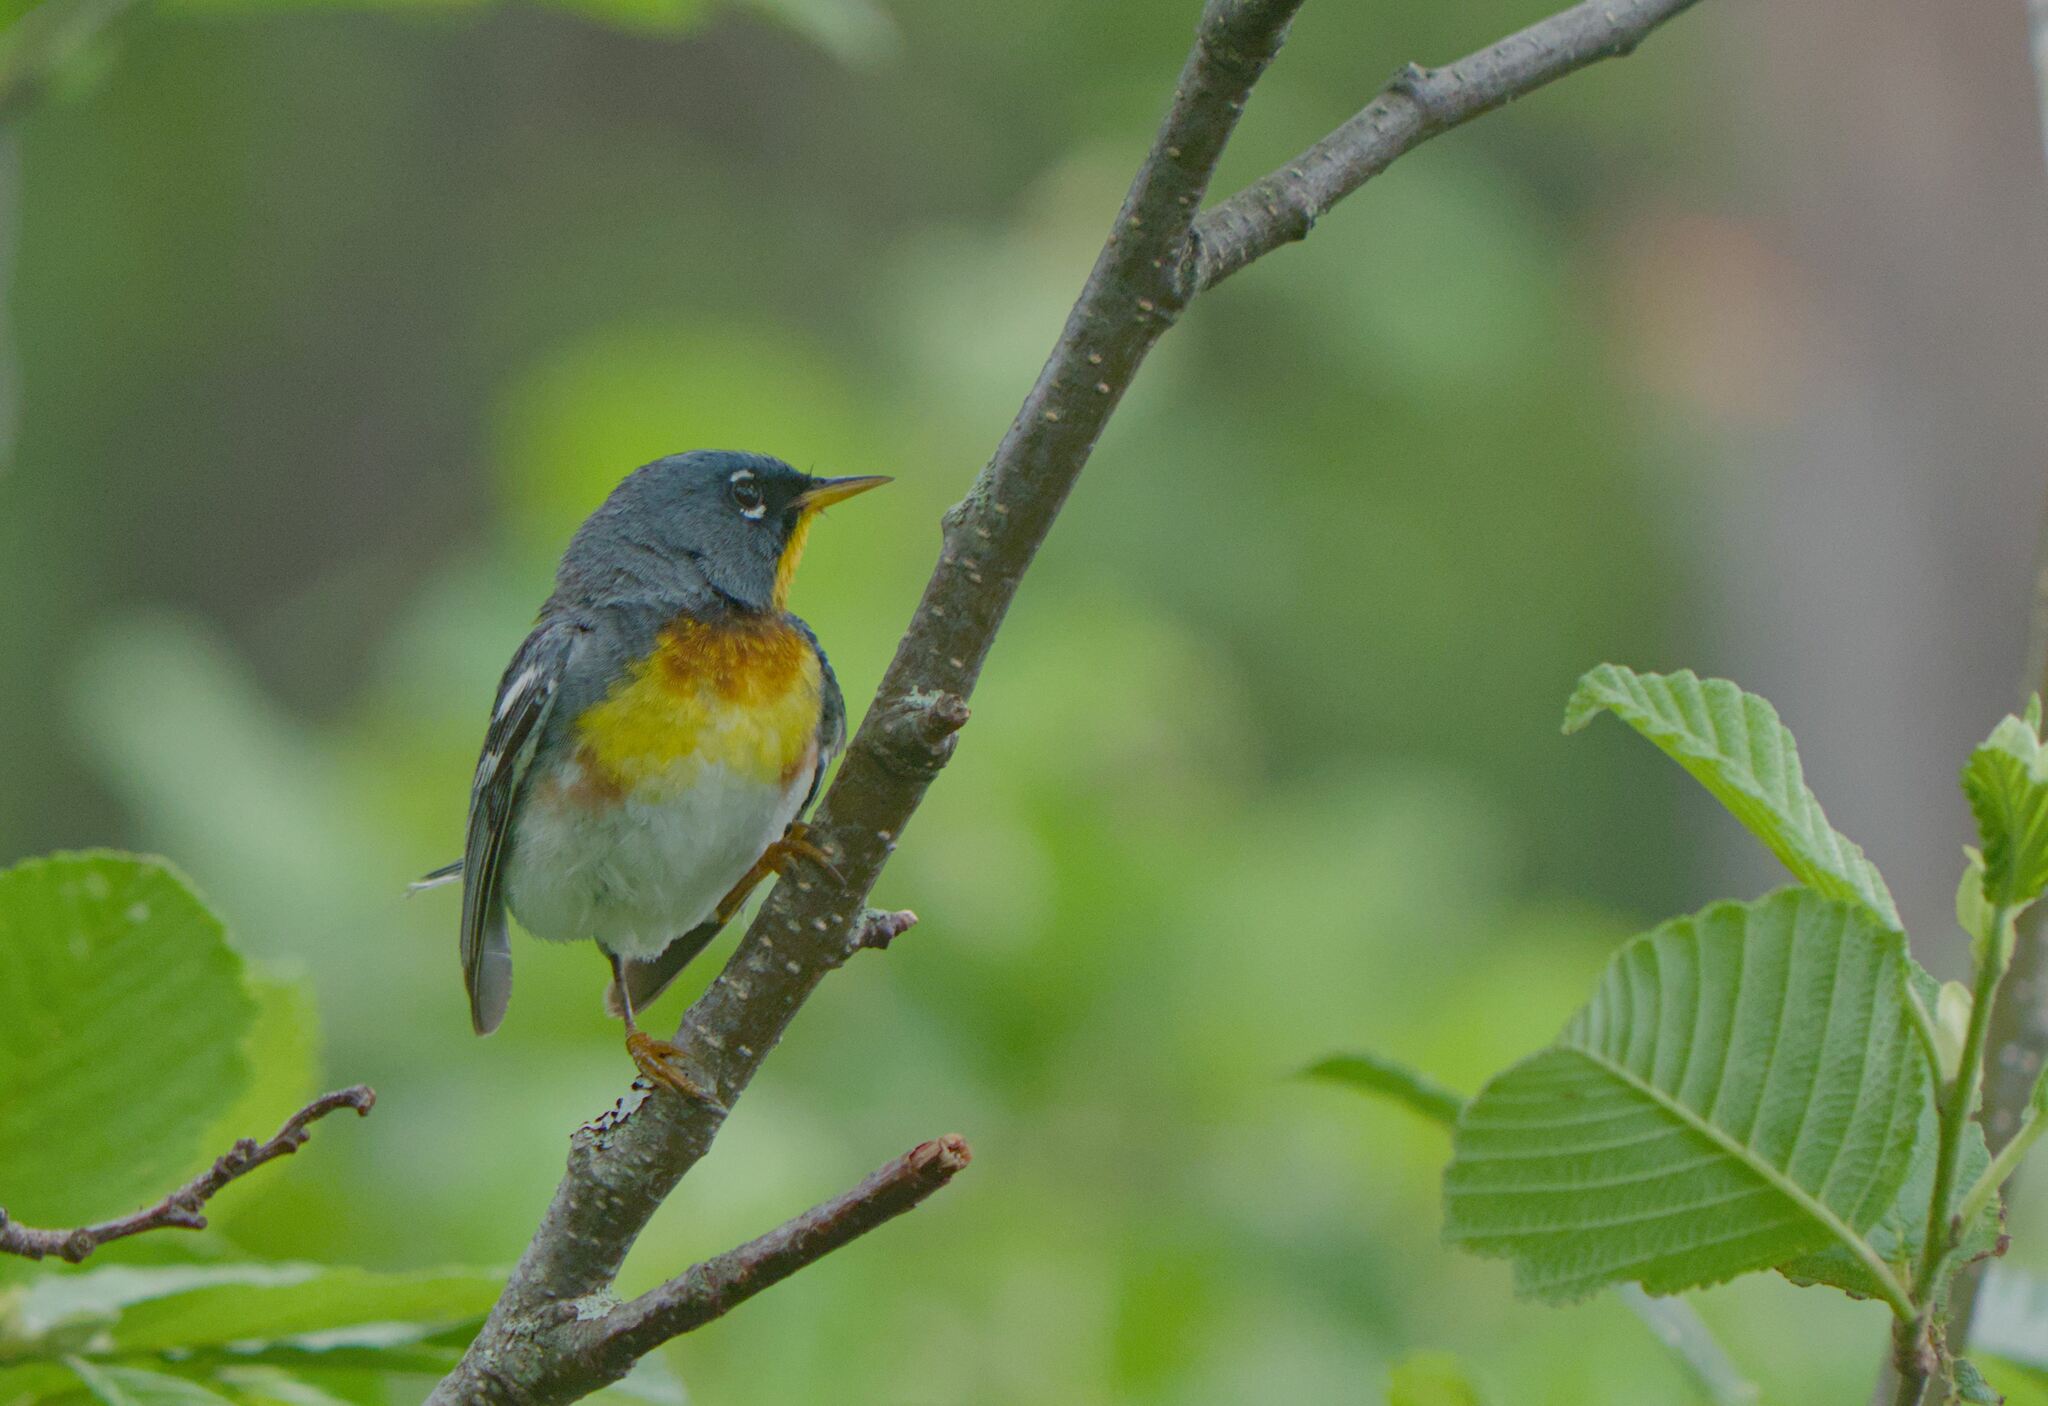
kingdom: Animalia
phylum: Chordata
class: Aves
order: Passeriformes
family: Parulidae
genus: Setophaga
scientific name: Setophaga americana
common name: Northern parula
